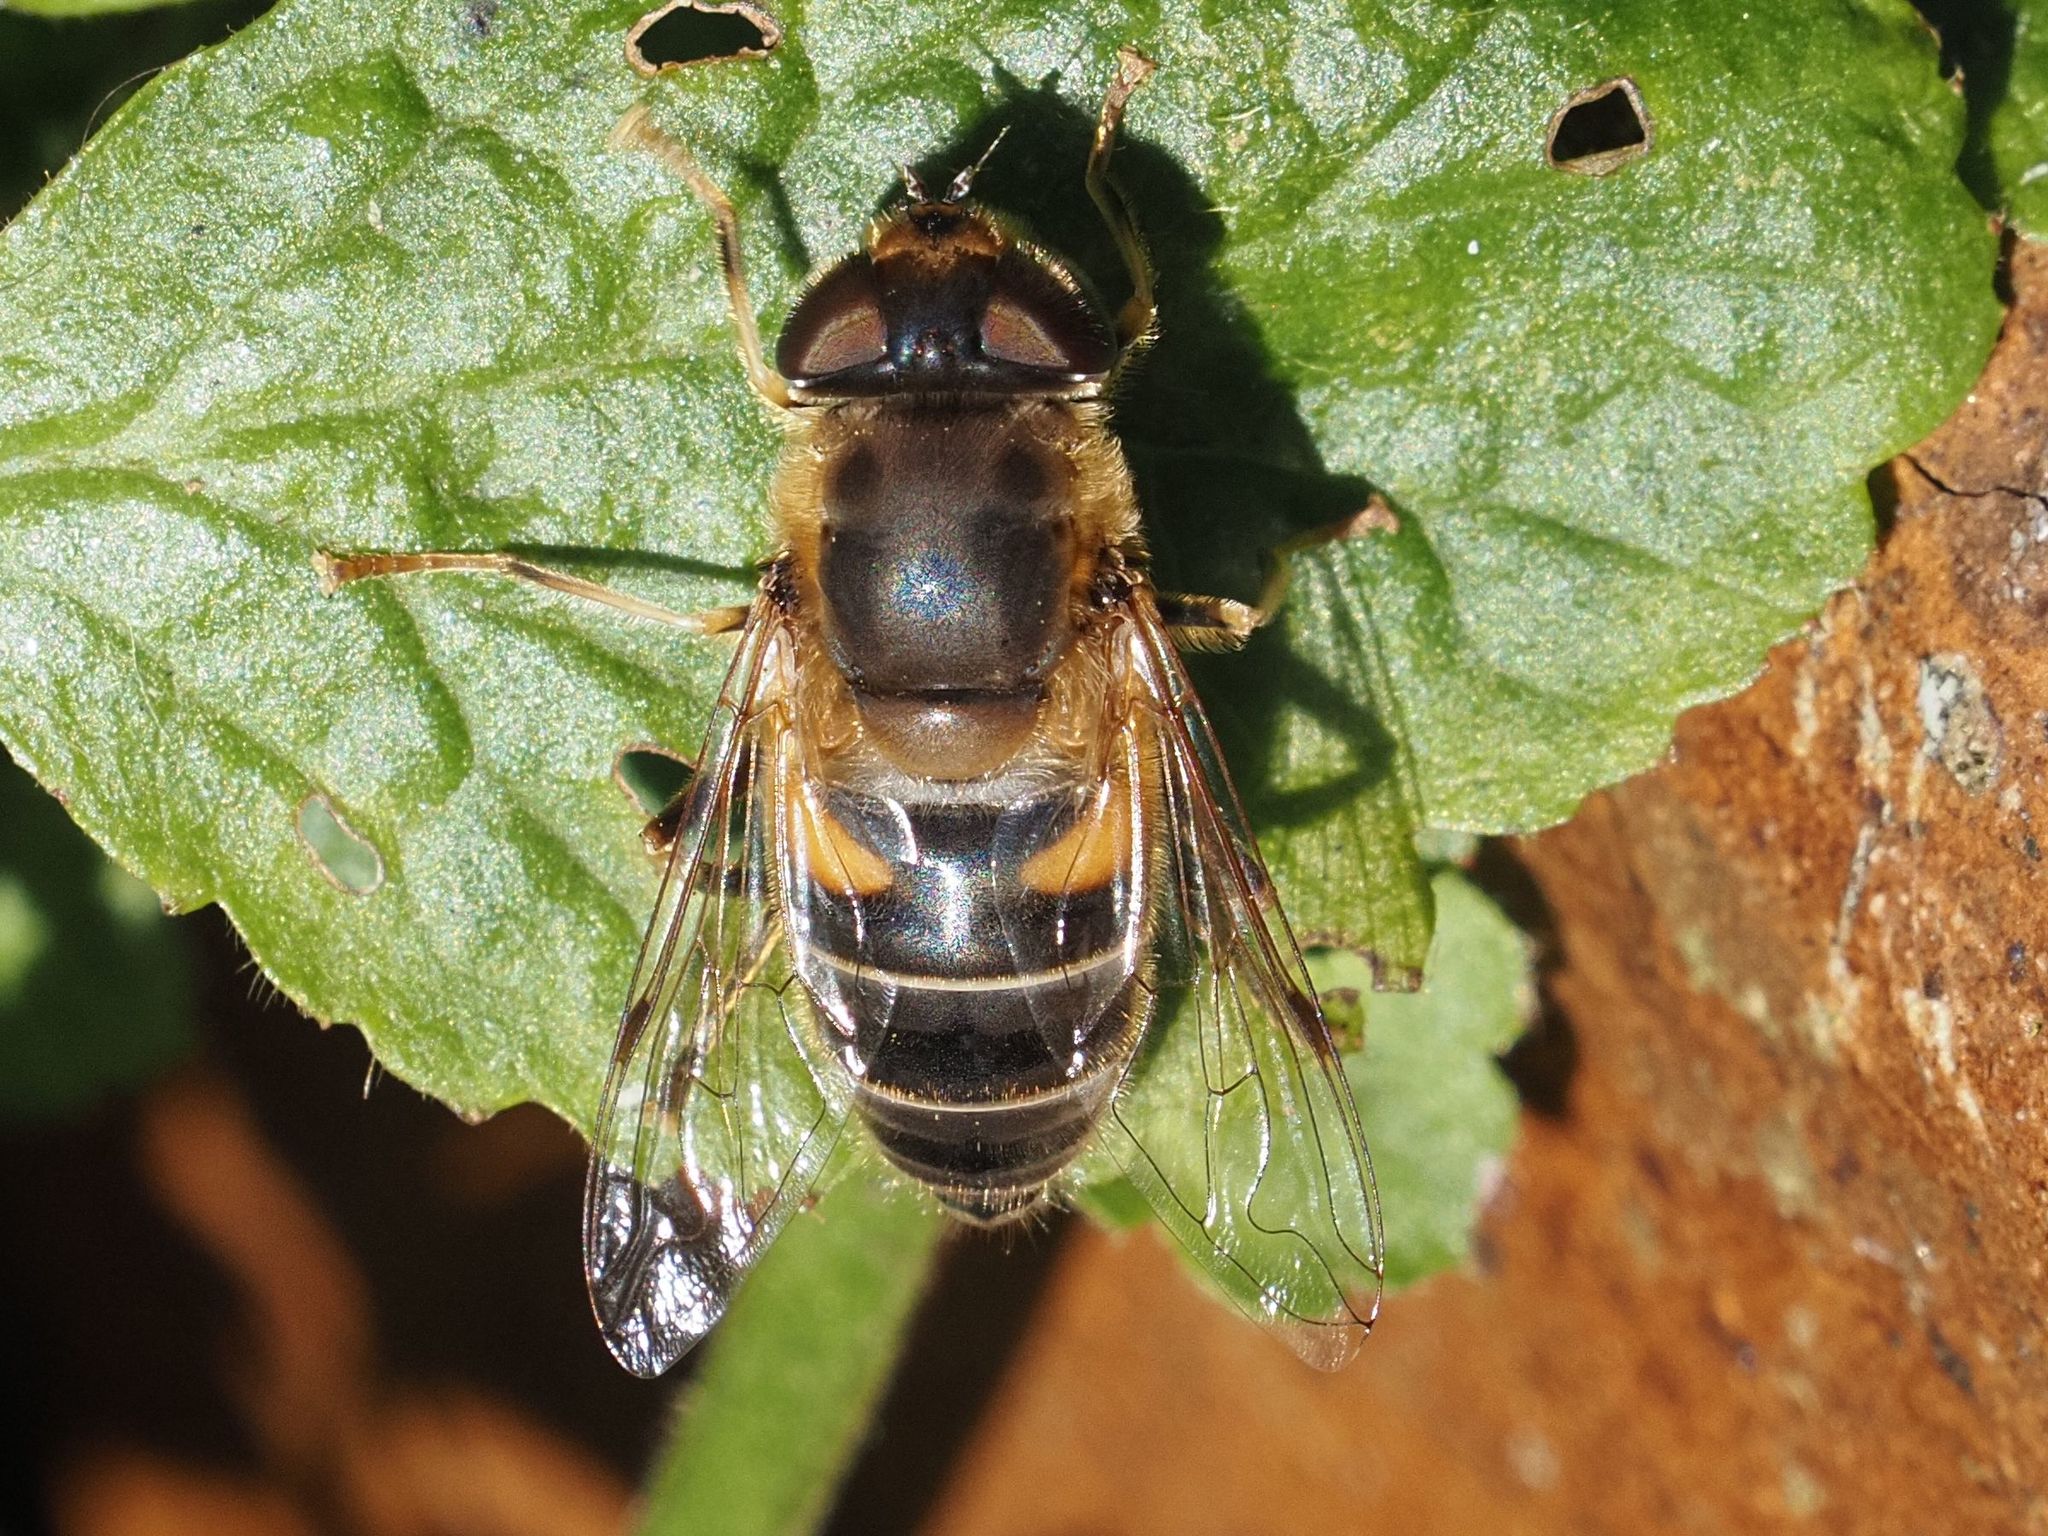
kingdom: Animalia
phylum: Arthropoda
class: Insecta
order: Diptera
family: Syrphidae
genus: Eristalis
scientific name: Eristalis pertinax
